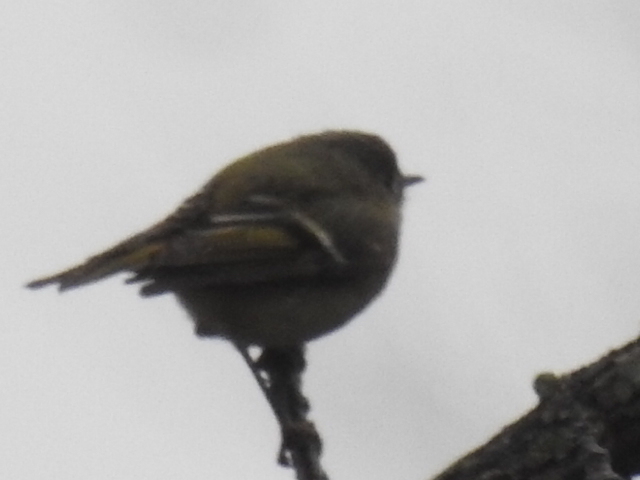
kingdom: Animalia
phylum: Chordata
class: Aves
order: Passeriformes
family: Regulidae
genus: Regulus
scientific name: Regulus calendula
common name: Ruby-crowned kinglet
